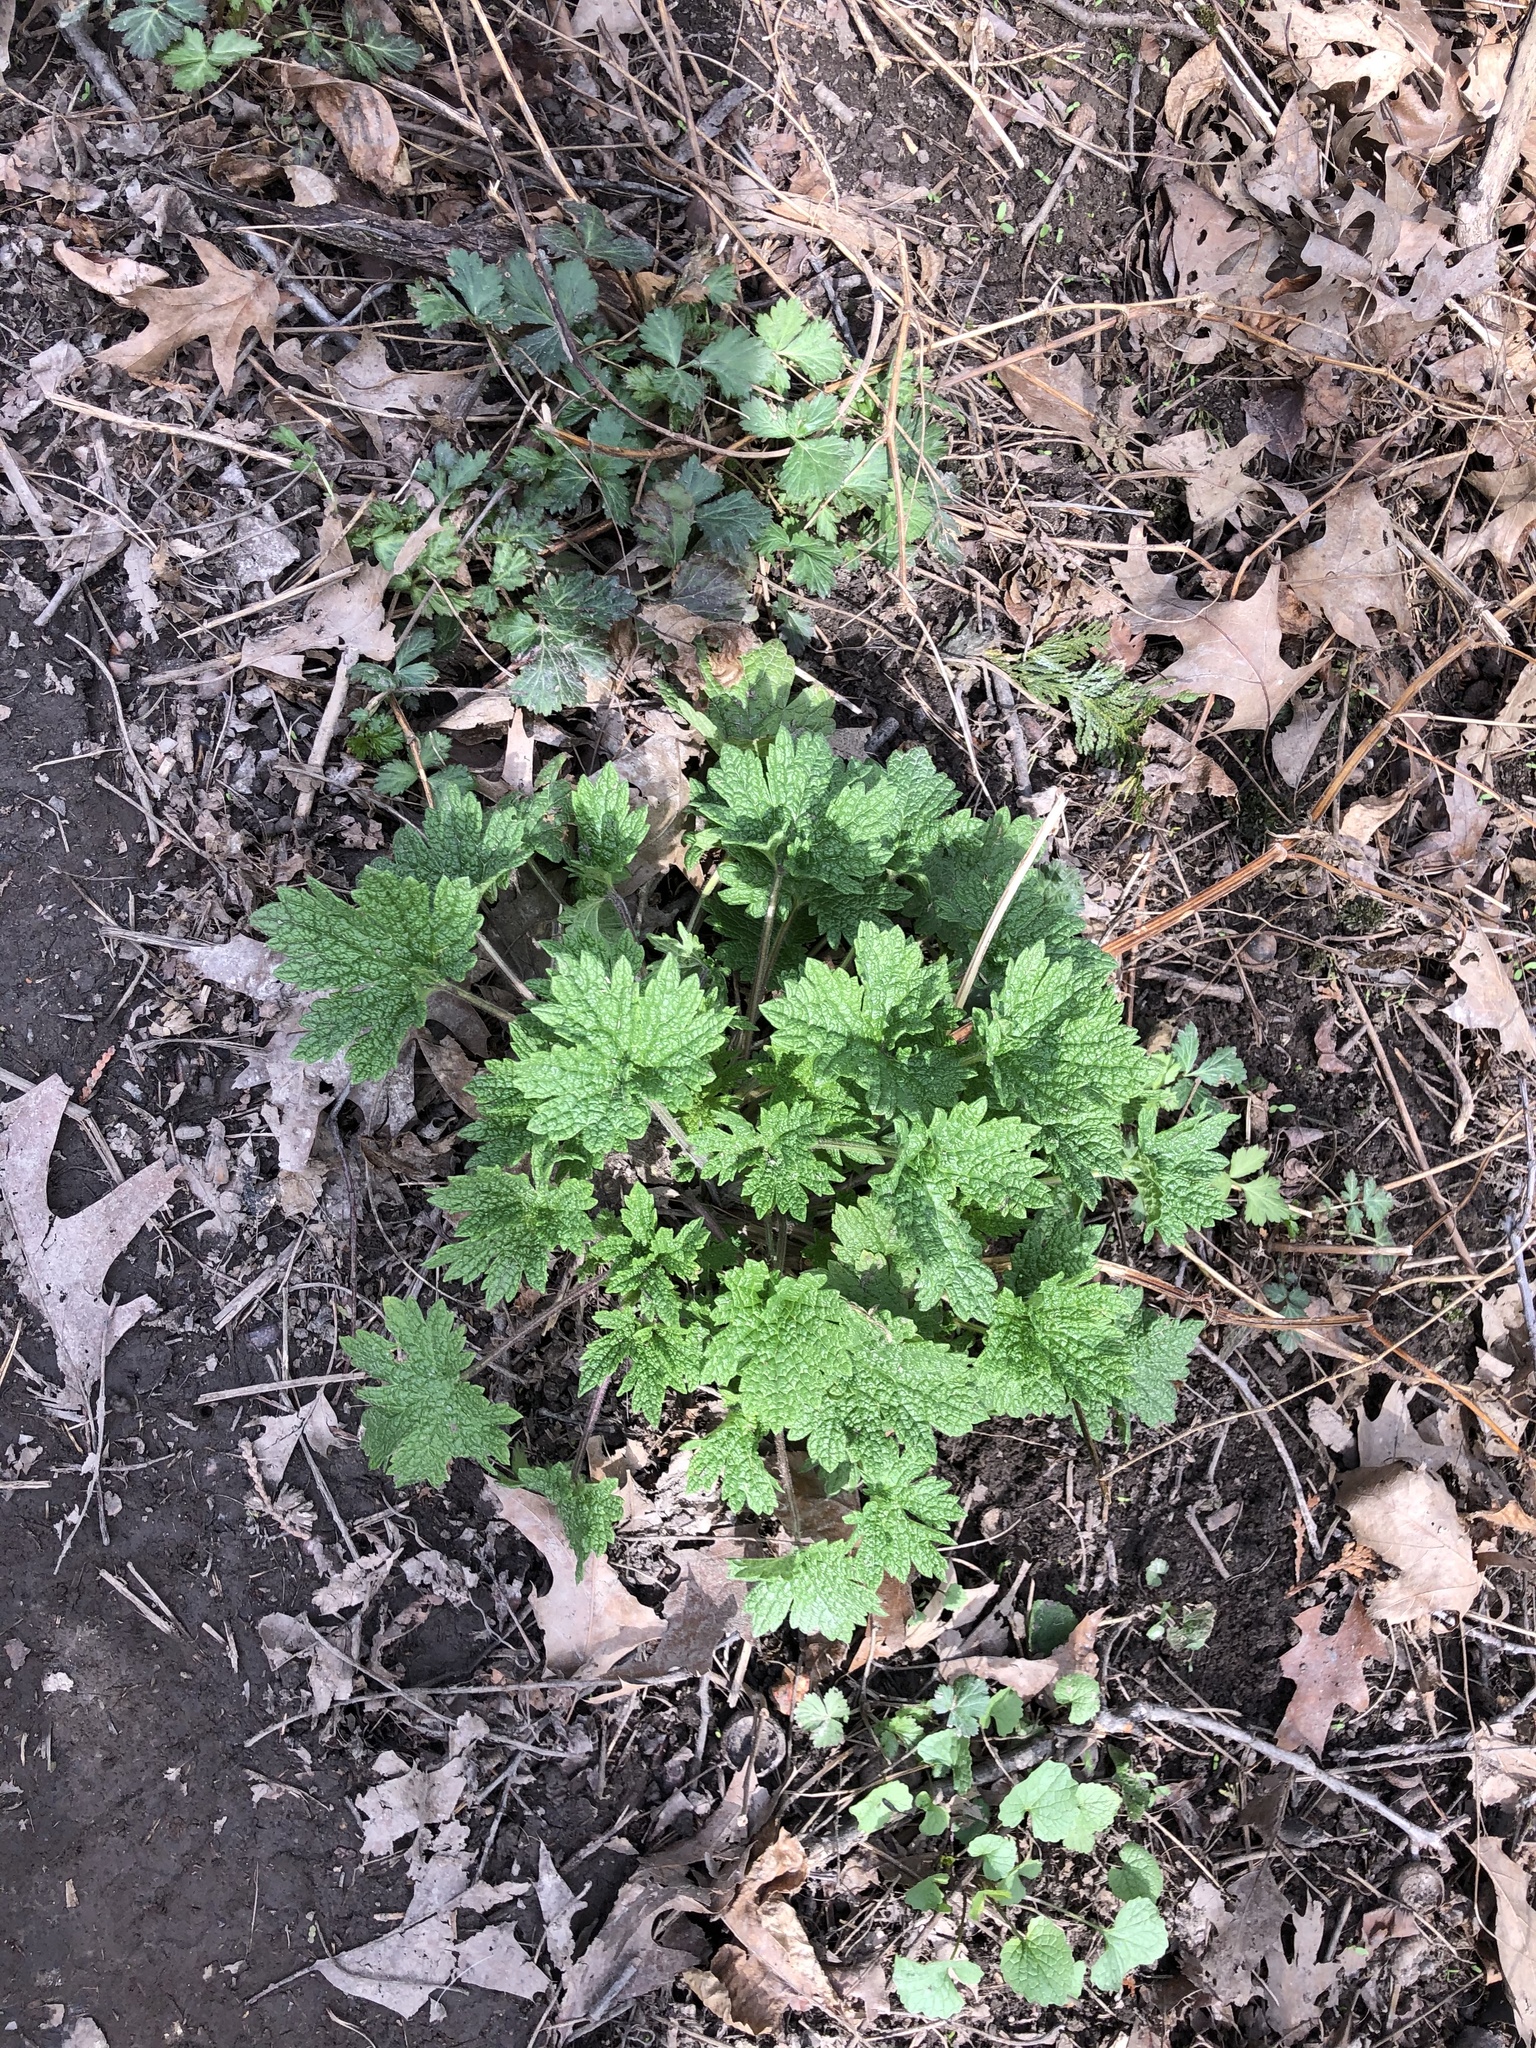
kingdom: Plantae
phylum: Tracheophyta
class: Magnoliopsida
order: Lamiales
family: Lamiaceae
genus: Leonurus
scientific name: Leonurus cardiaca
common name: Motherwort
